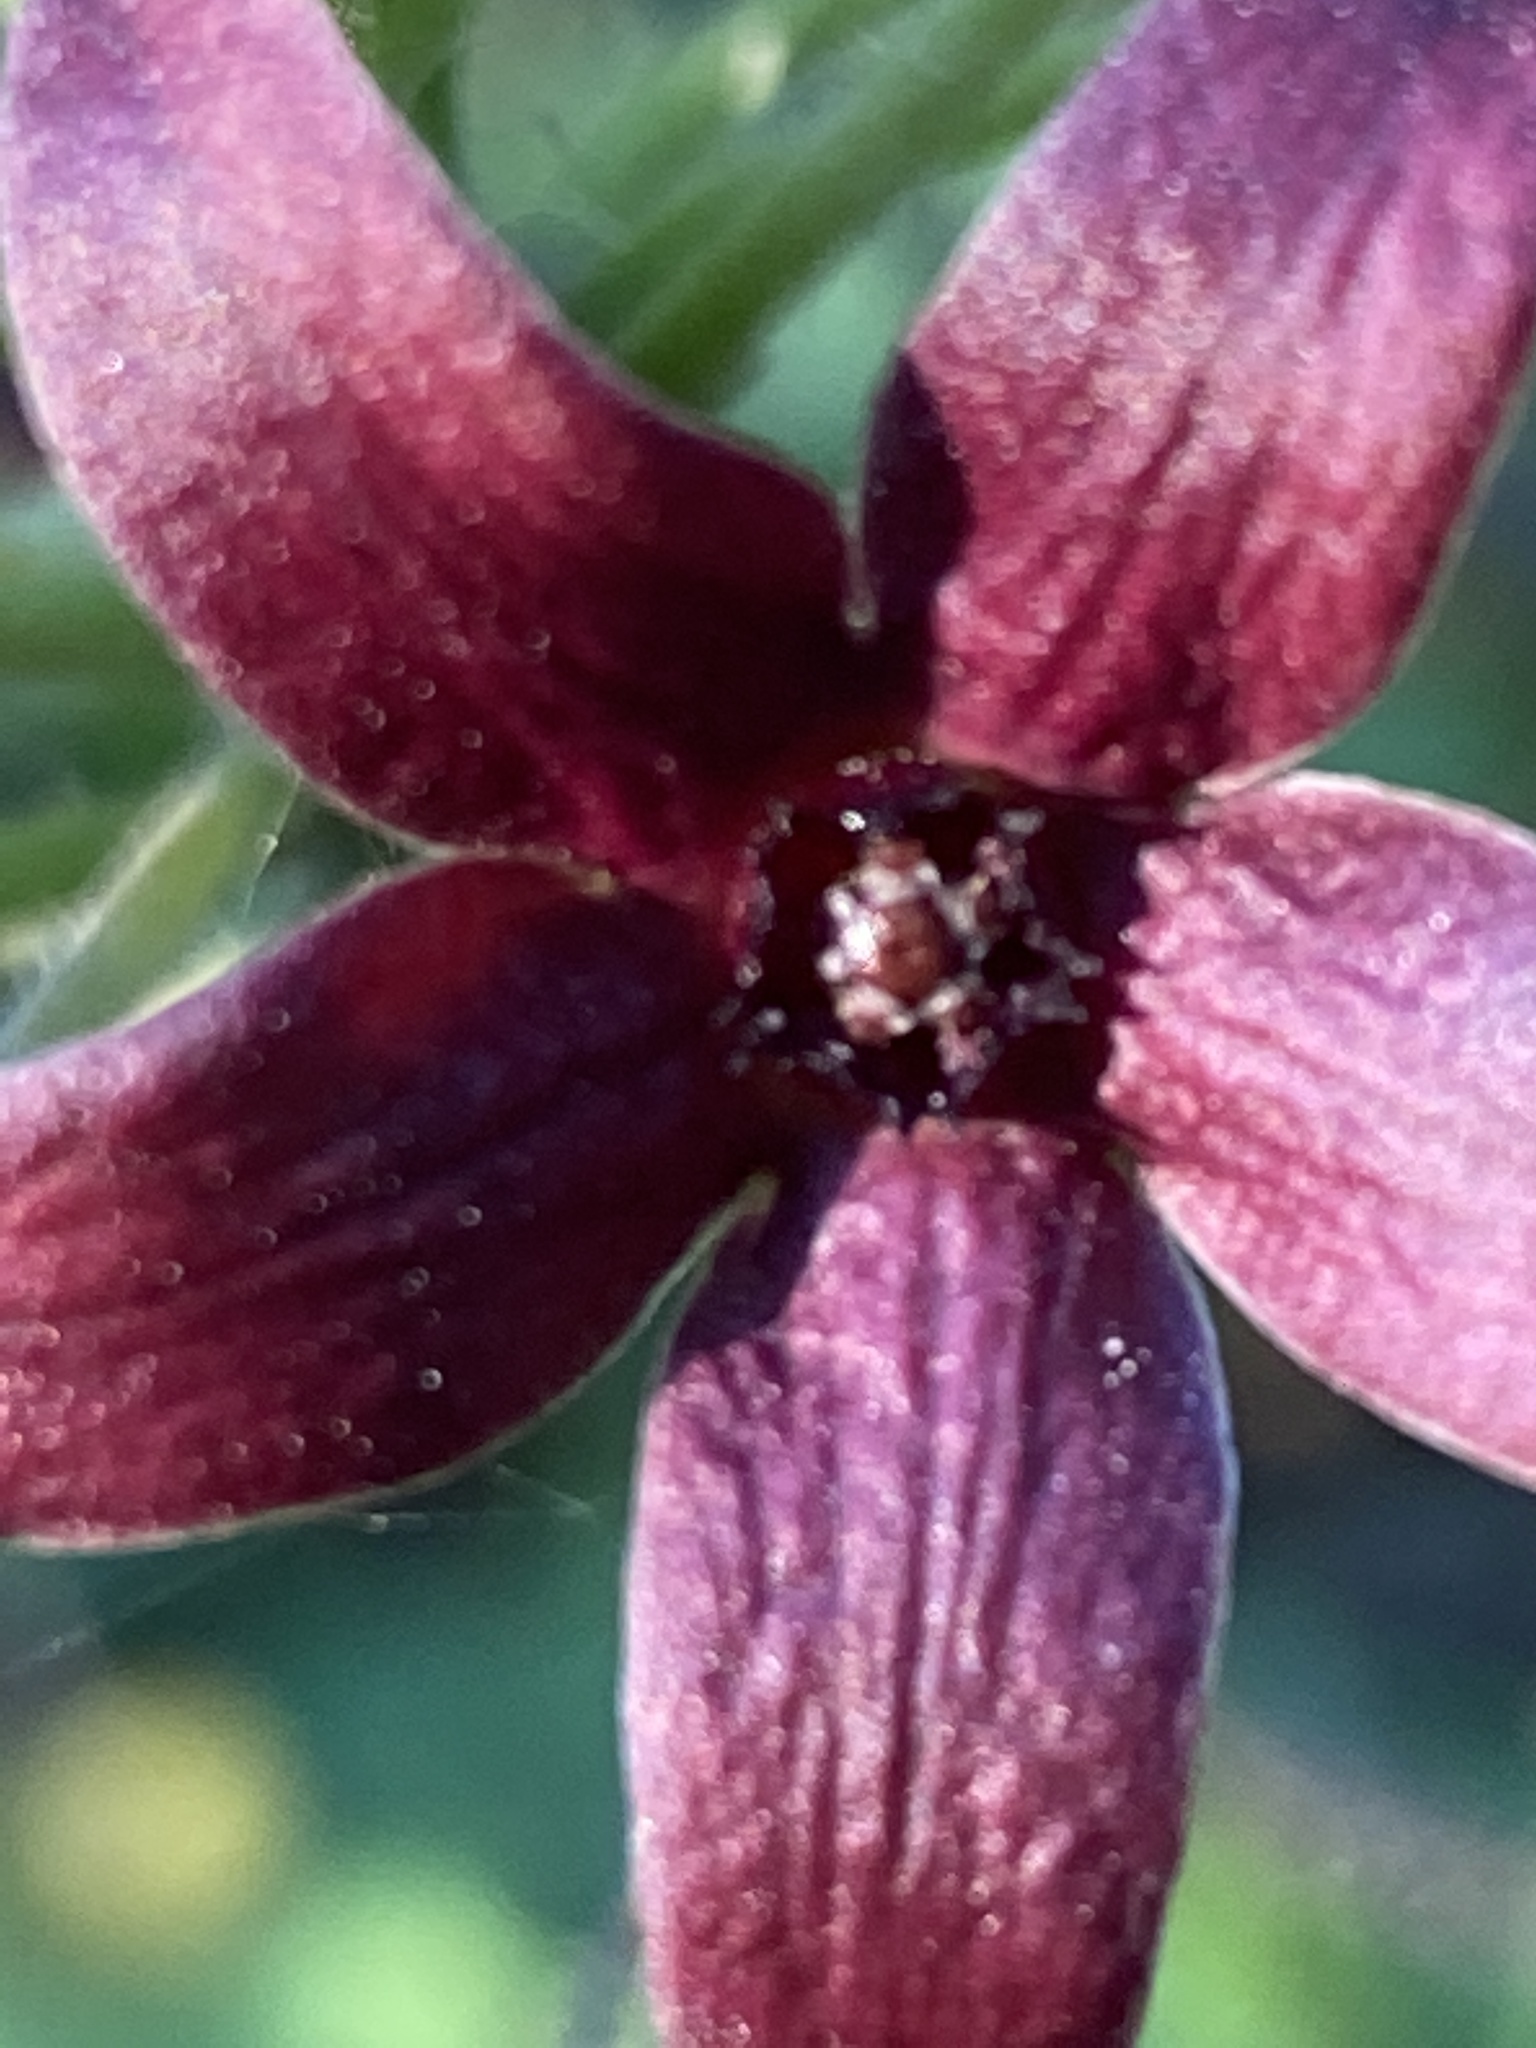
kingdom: Plantae
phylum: Tracheophyta
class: Magnoliopsida
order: Gentianales
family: Apocynaceae
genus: Matelea
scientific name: Matelea carolinensis
